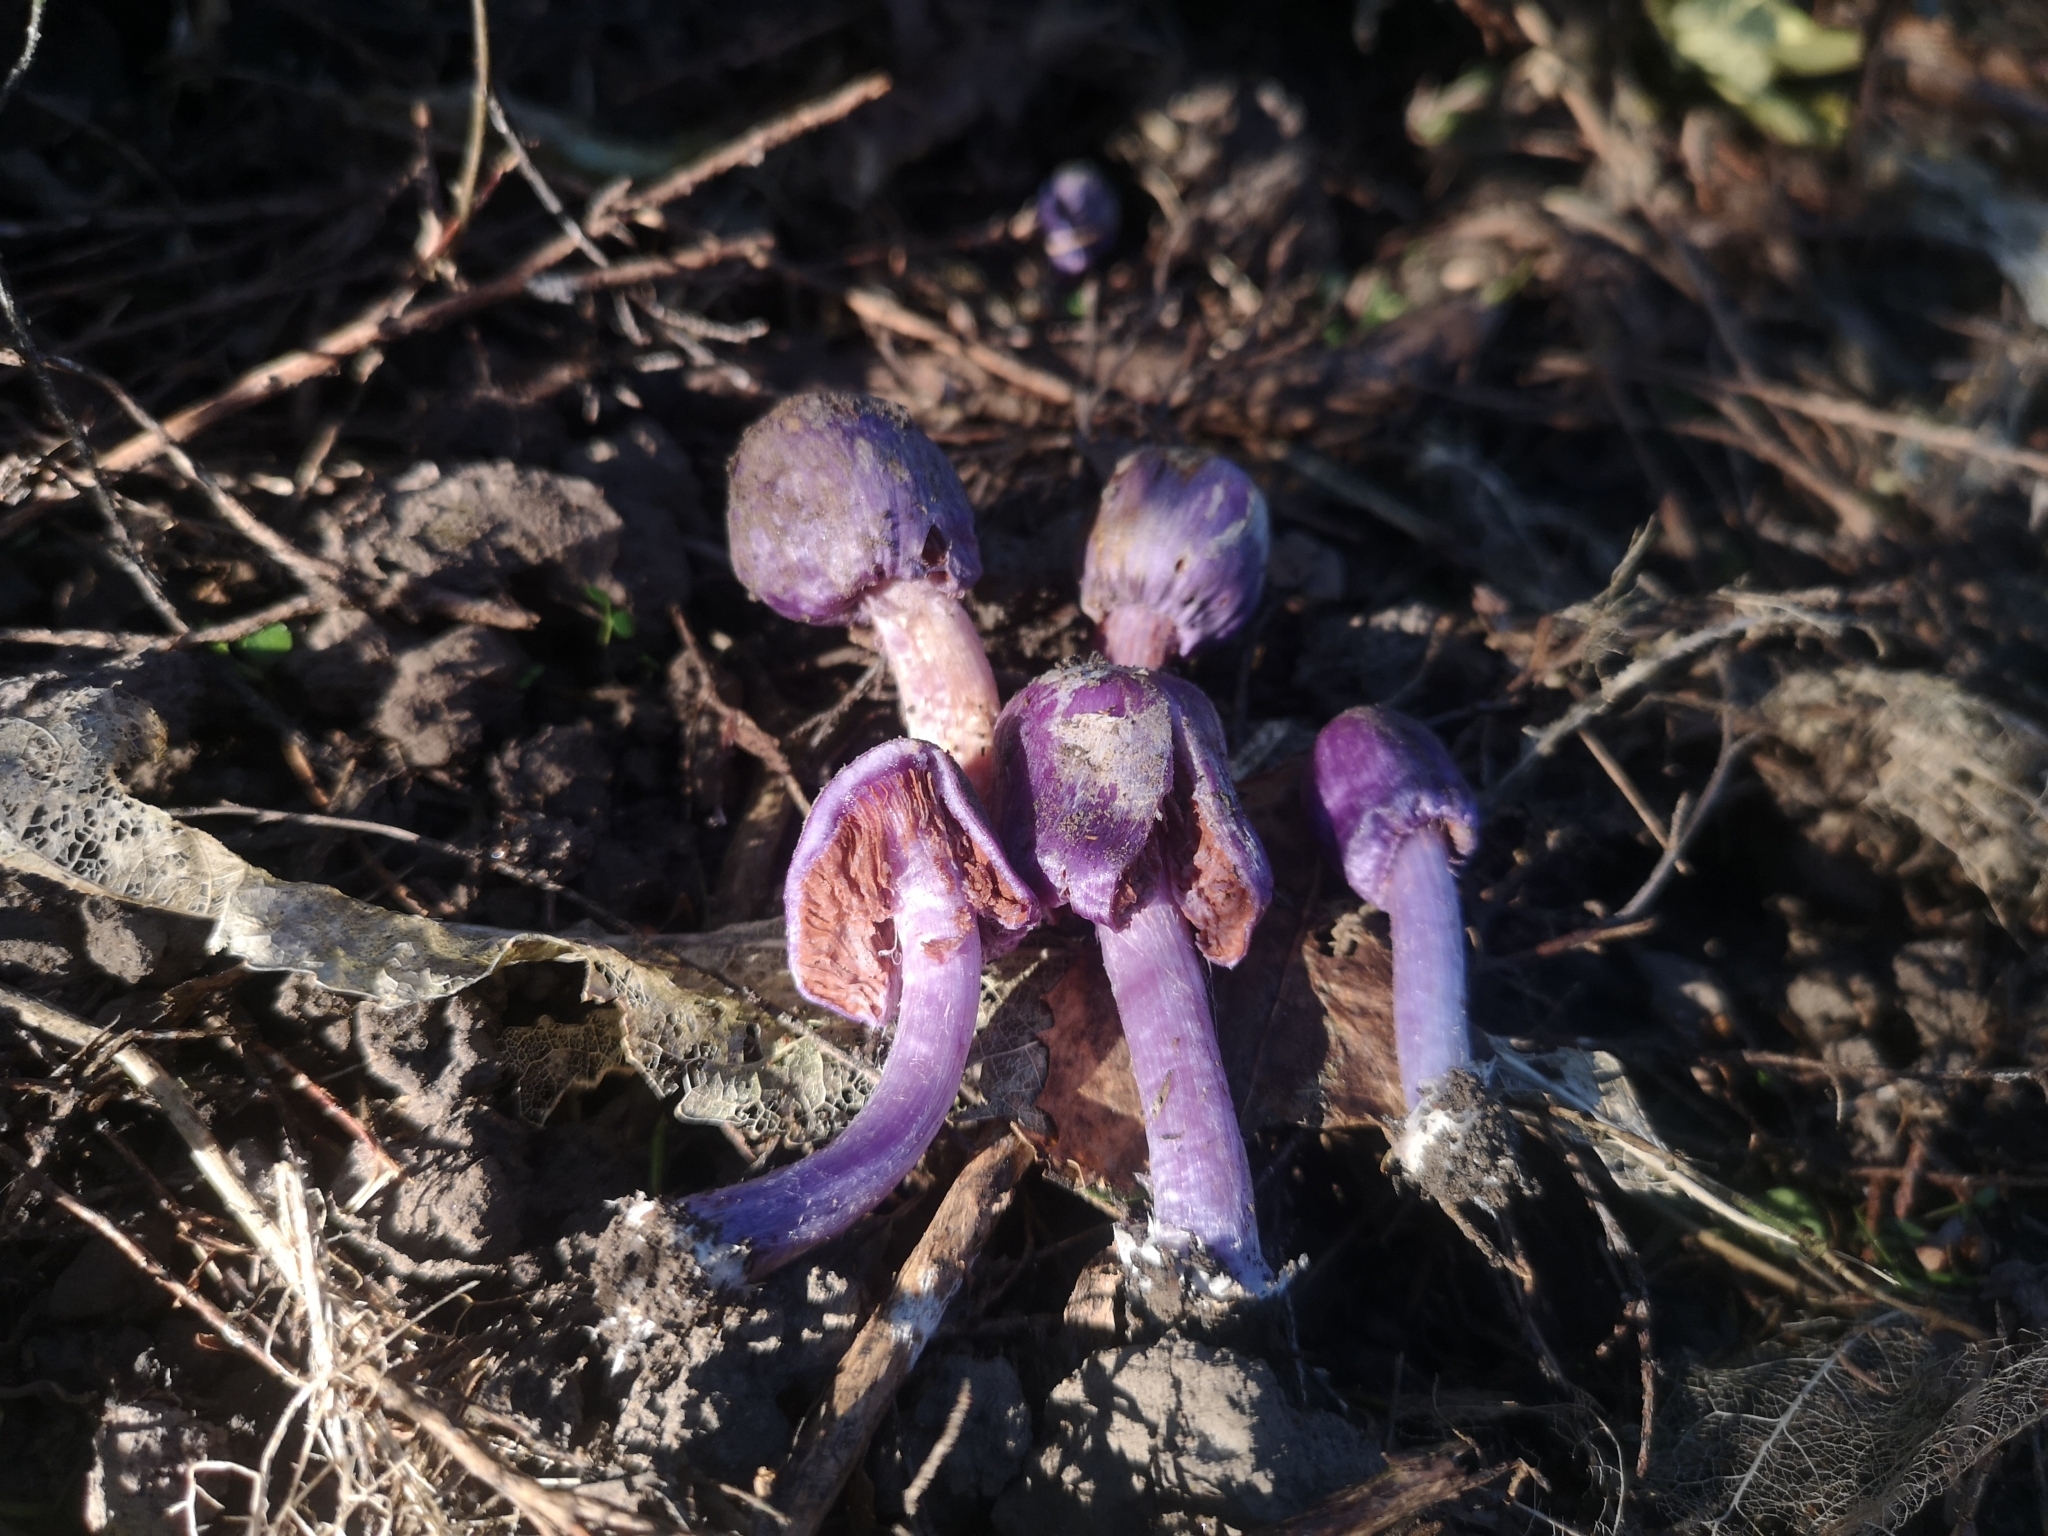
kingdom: Fungi
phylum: Basidiomycota
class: Agaricomycetes
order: Agaricales
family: Cortinariaceae
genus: Cortinarius
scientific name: Cortinarius coneae
